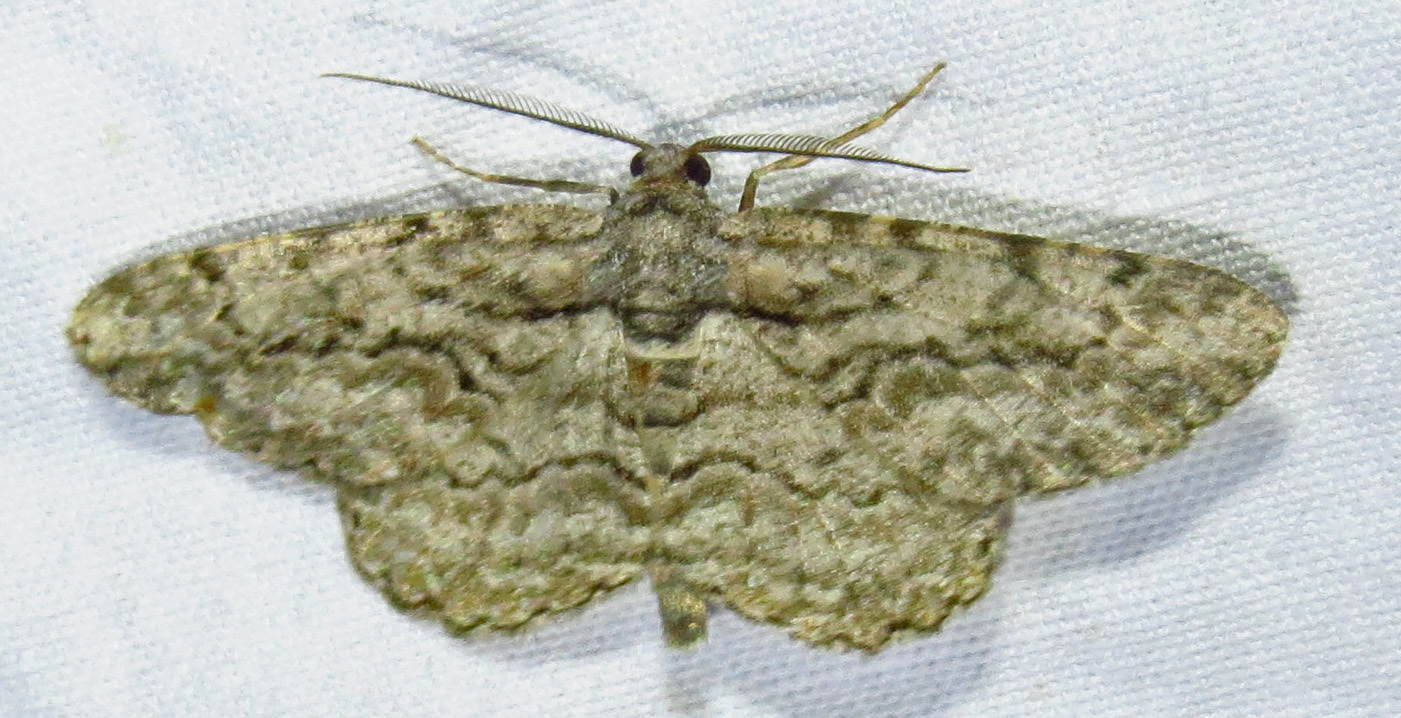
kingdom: Animalia
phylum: Arthropoda
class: Insecta
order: Lepidoptera
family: Geometridae
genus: Anavitrinella
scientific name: Anavitrinella pampinaria
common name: Common gray
